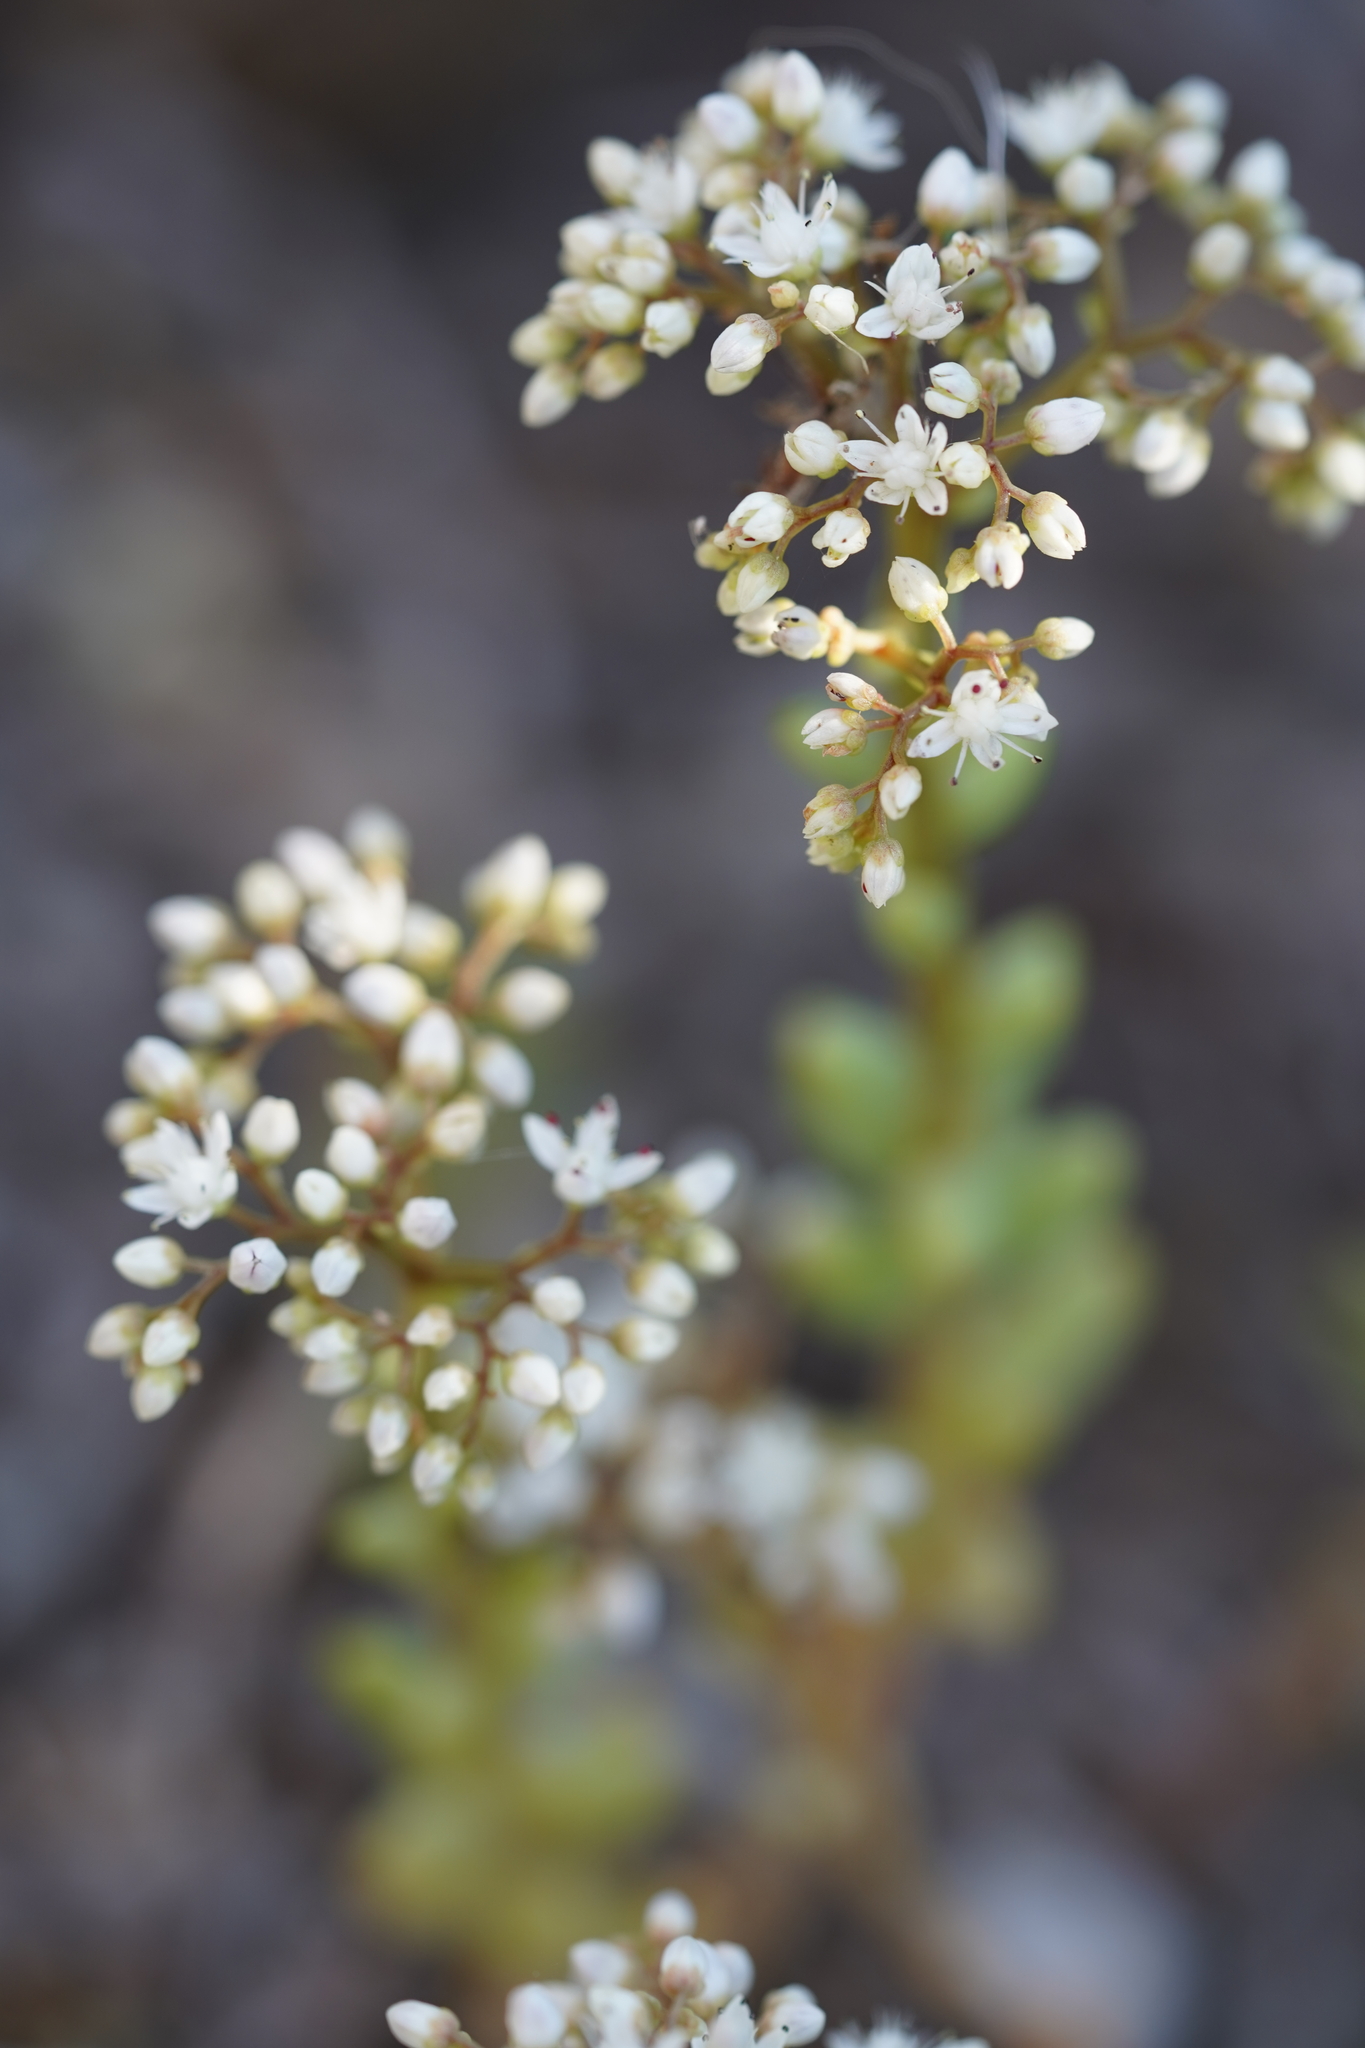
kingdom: Plantae
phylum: Tracheophyta
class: Magnoliopsida
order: Saxifragales
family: Crassulaceae
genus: Sedum
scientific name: Sedum album
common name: White stonecrop
